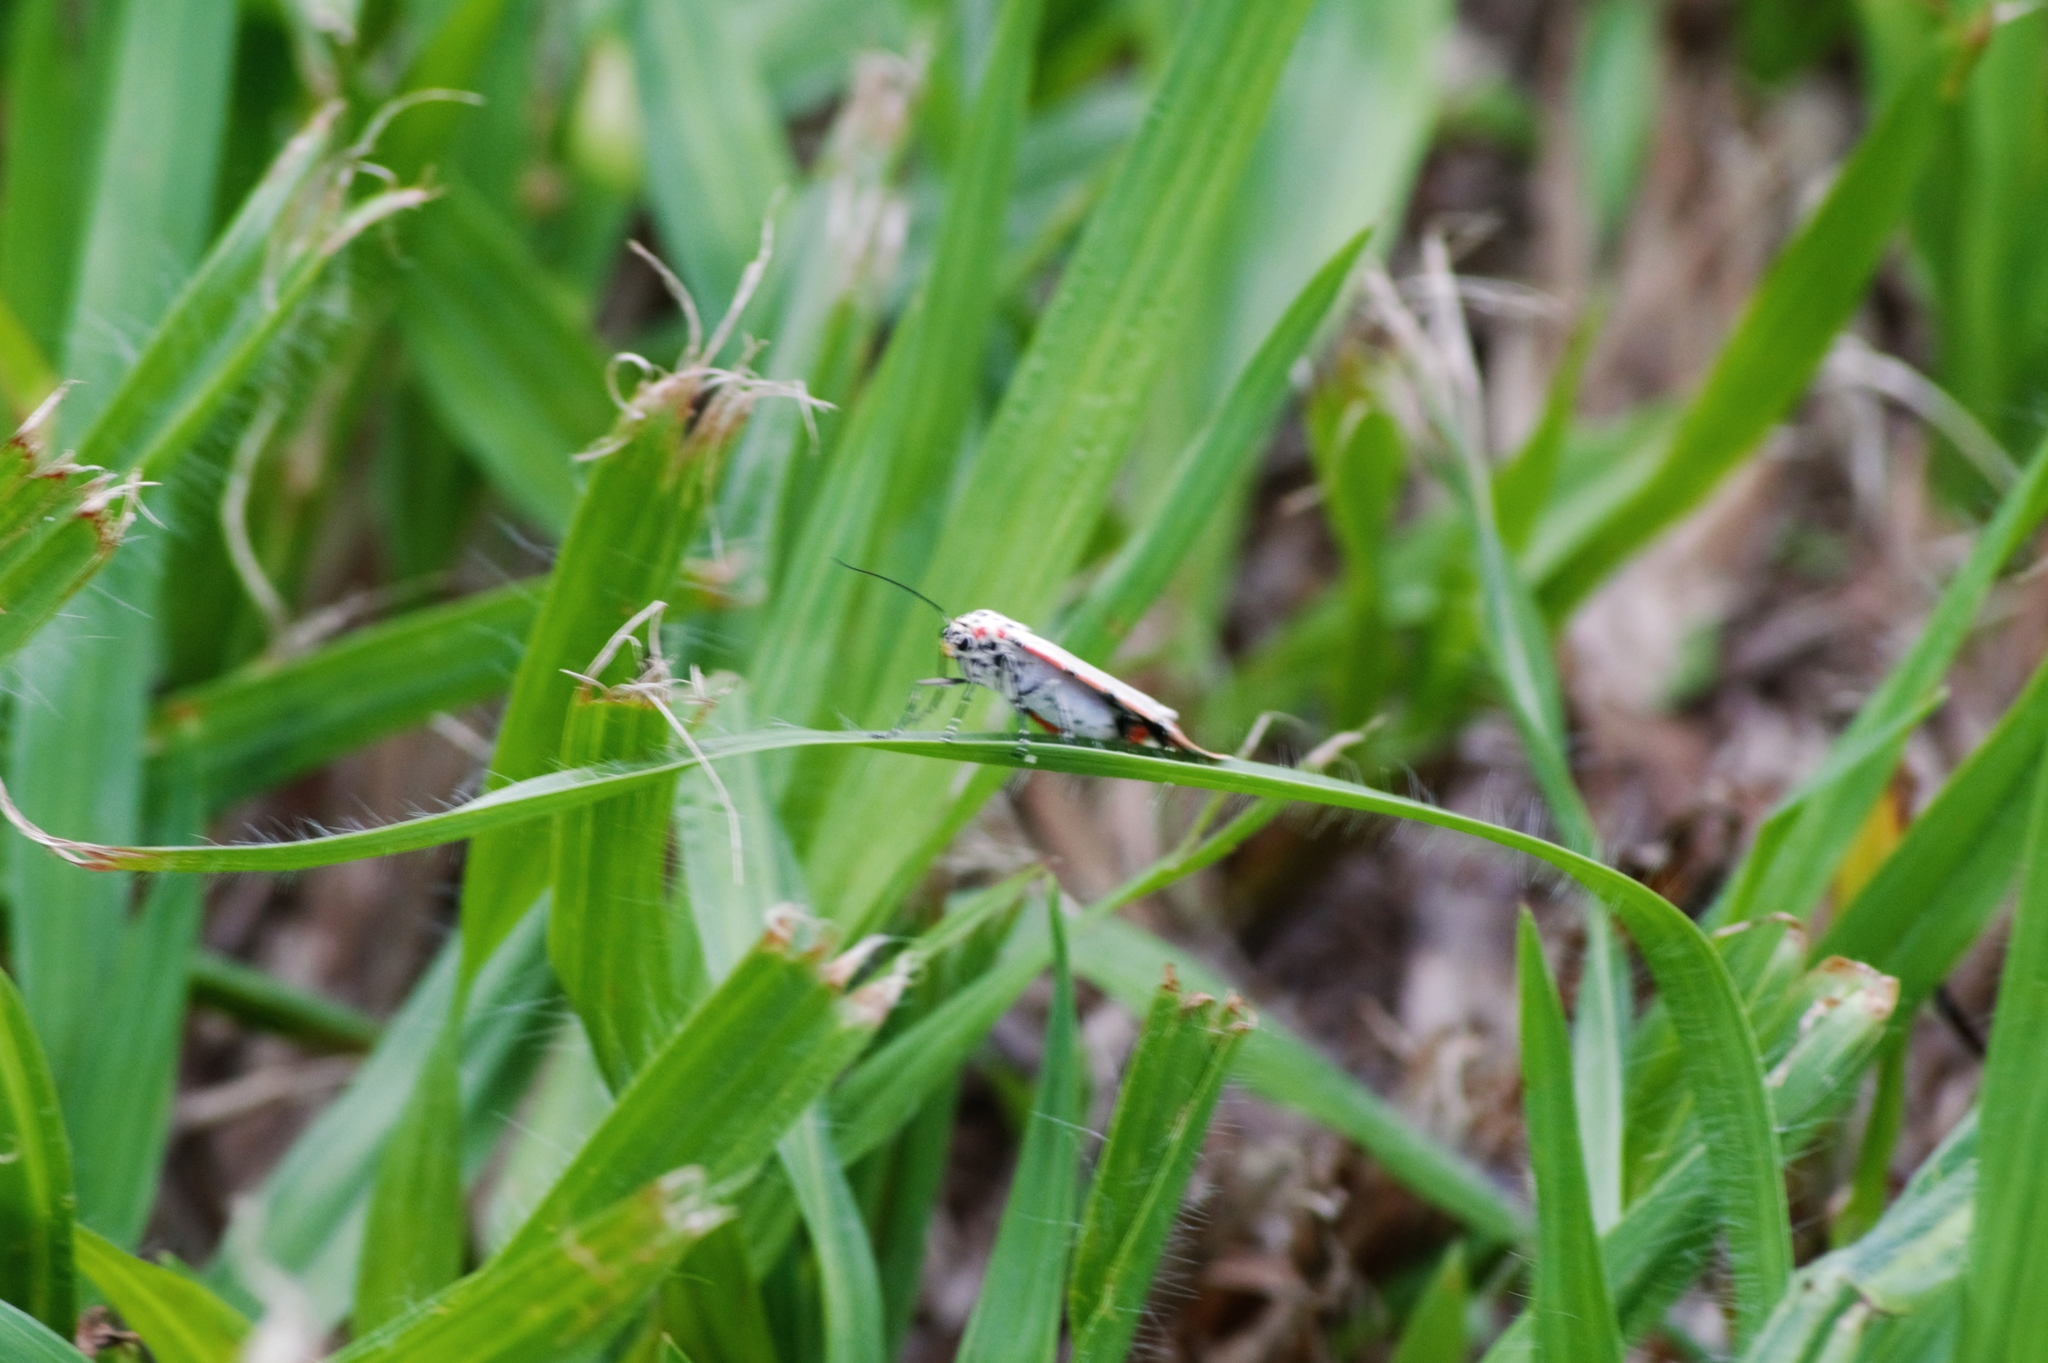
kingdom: Animalia
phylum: Arthropoda
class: Insecta
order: Lepidoptera
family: Erebidae
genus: Utetheisa
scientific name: Utetheisa ornatrix
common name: Beautiful utetheisa
